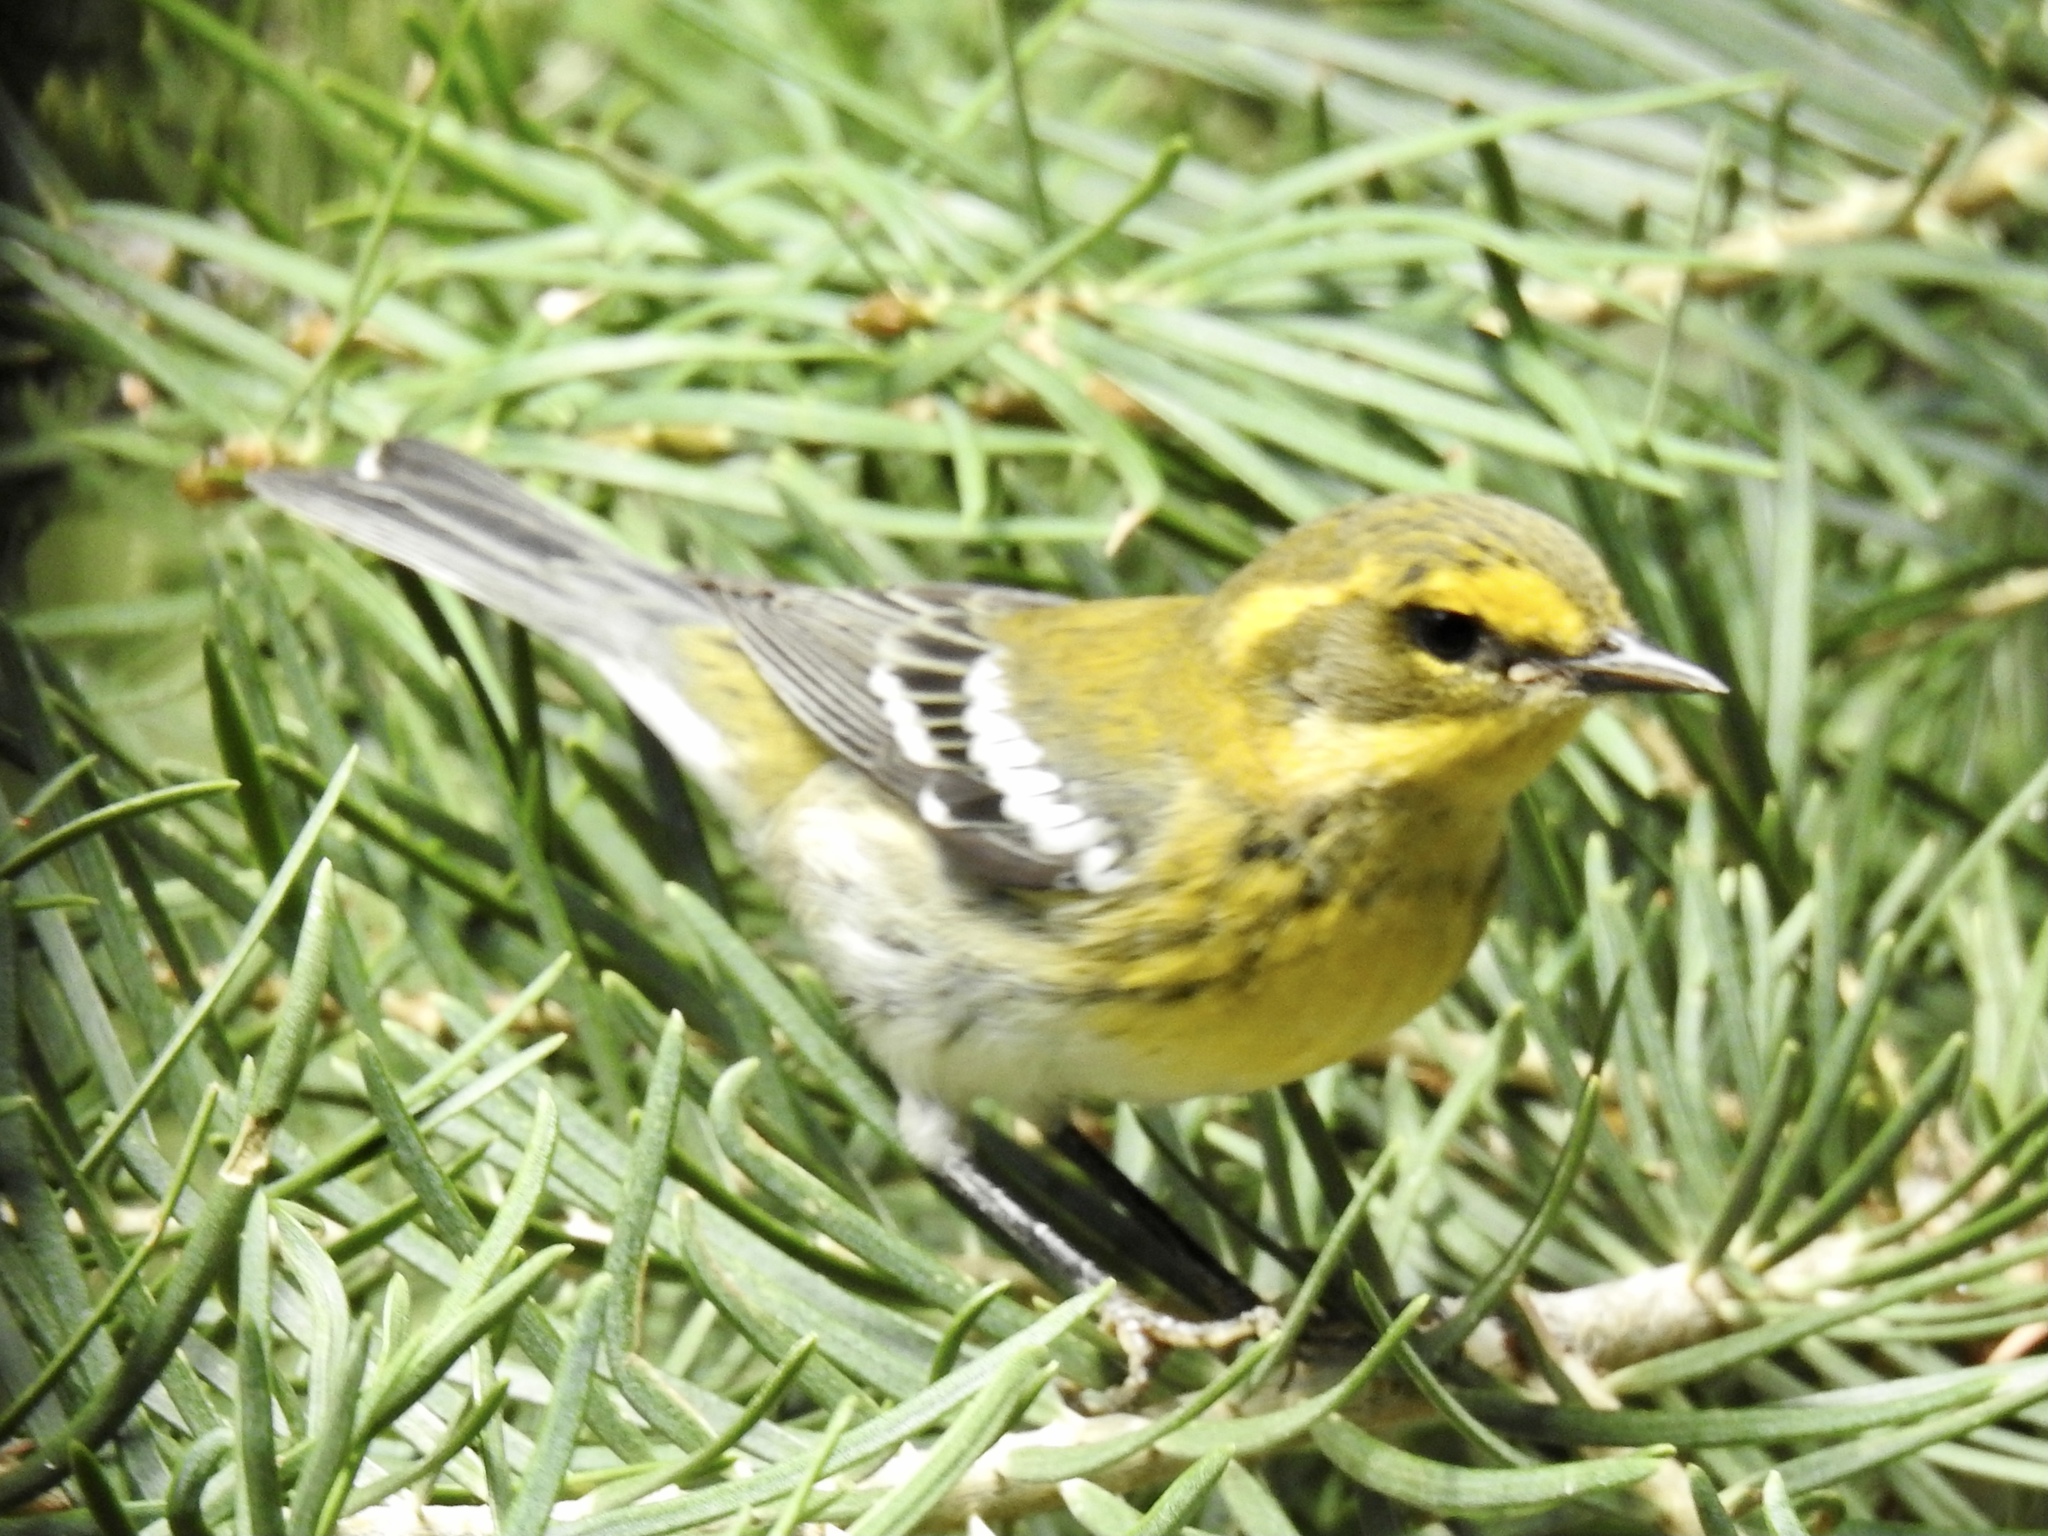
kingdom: Animalia
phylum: Chordata
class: Aves
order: Passeriformes
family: Parulidae
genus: Setophaga
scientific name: Setophaga townsendi
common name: Townsend's warbler
